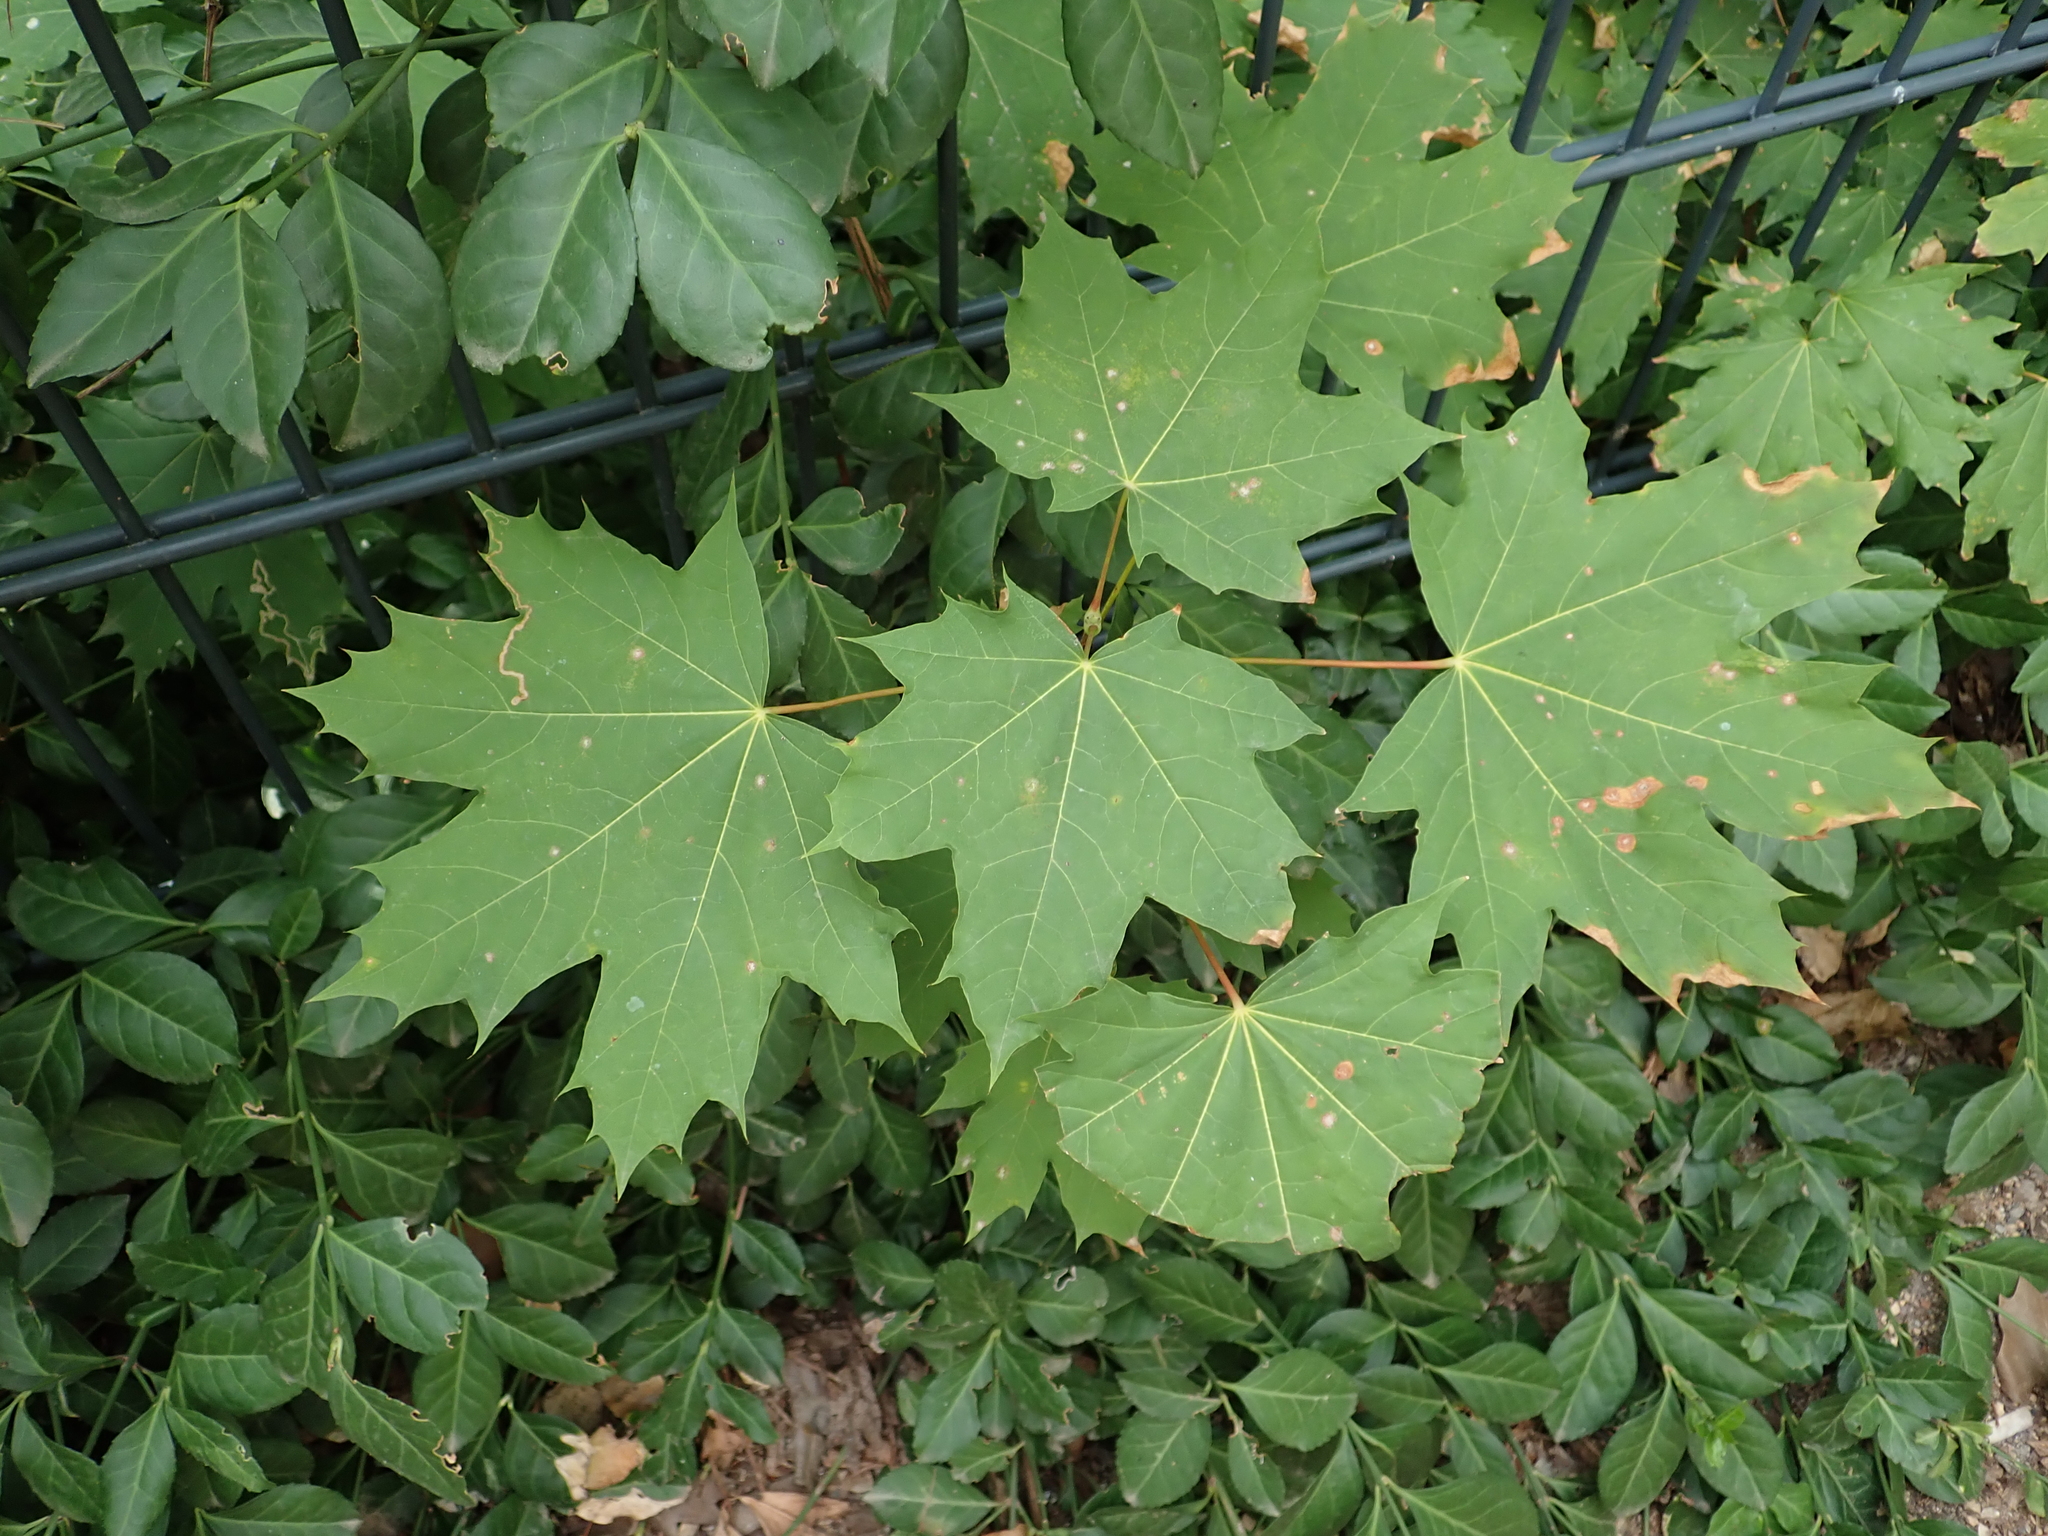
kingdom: Plantae
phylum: Tracheophyta
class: Magnoliopsida
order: Sapindales
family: Sapindaceae
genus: Acer
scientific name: Acer platanoides
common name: Norway maple
